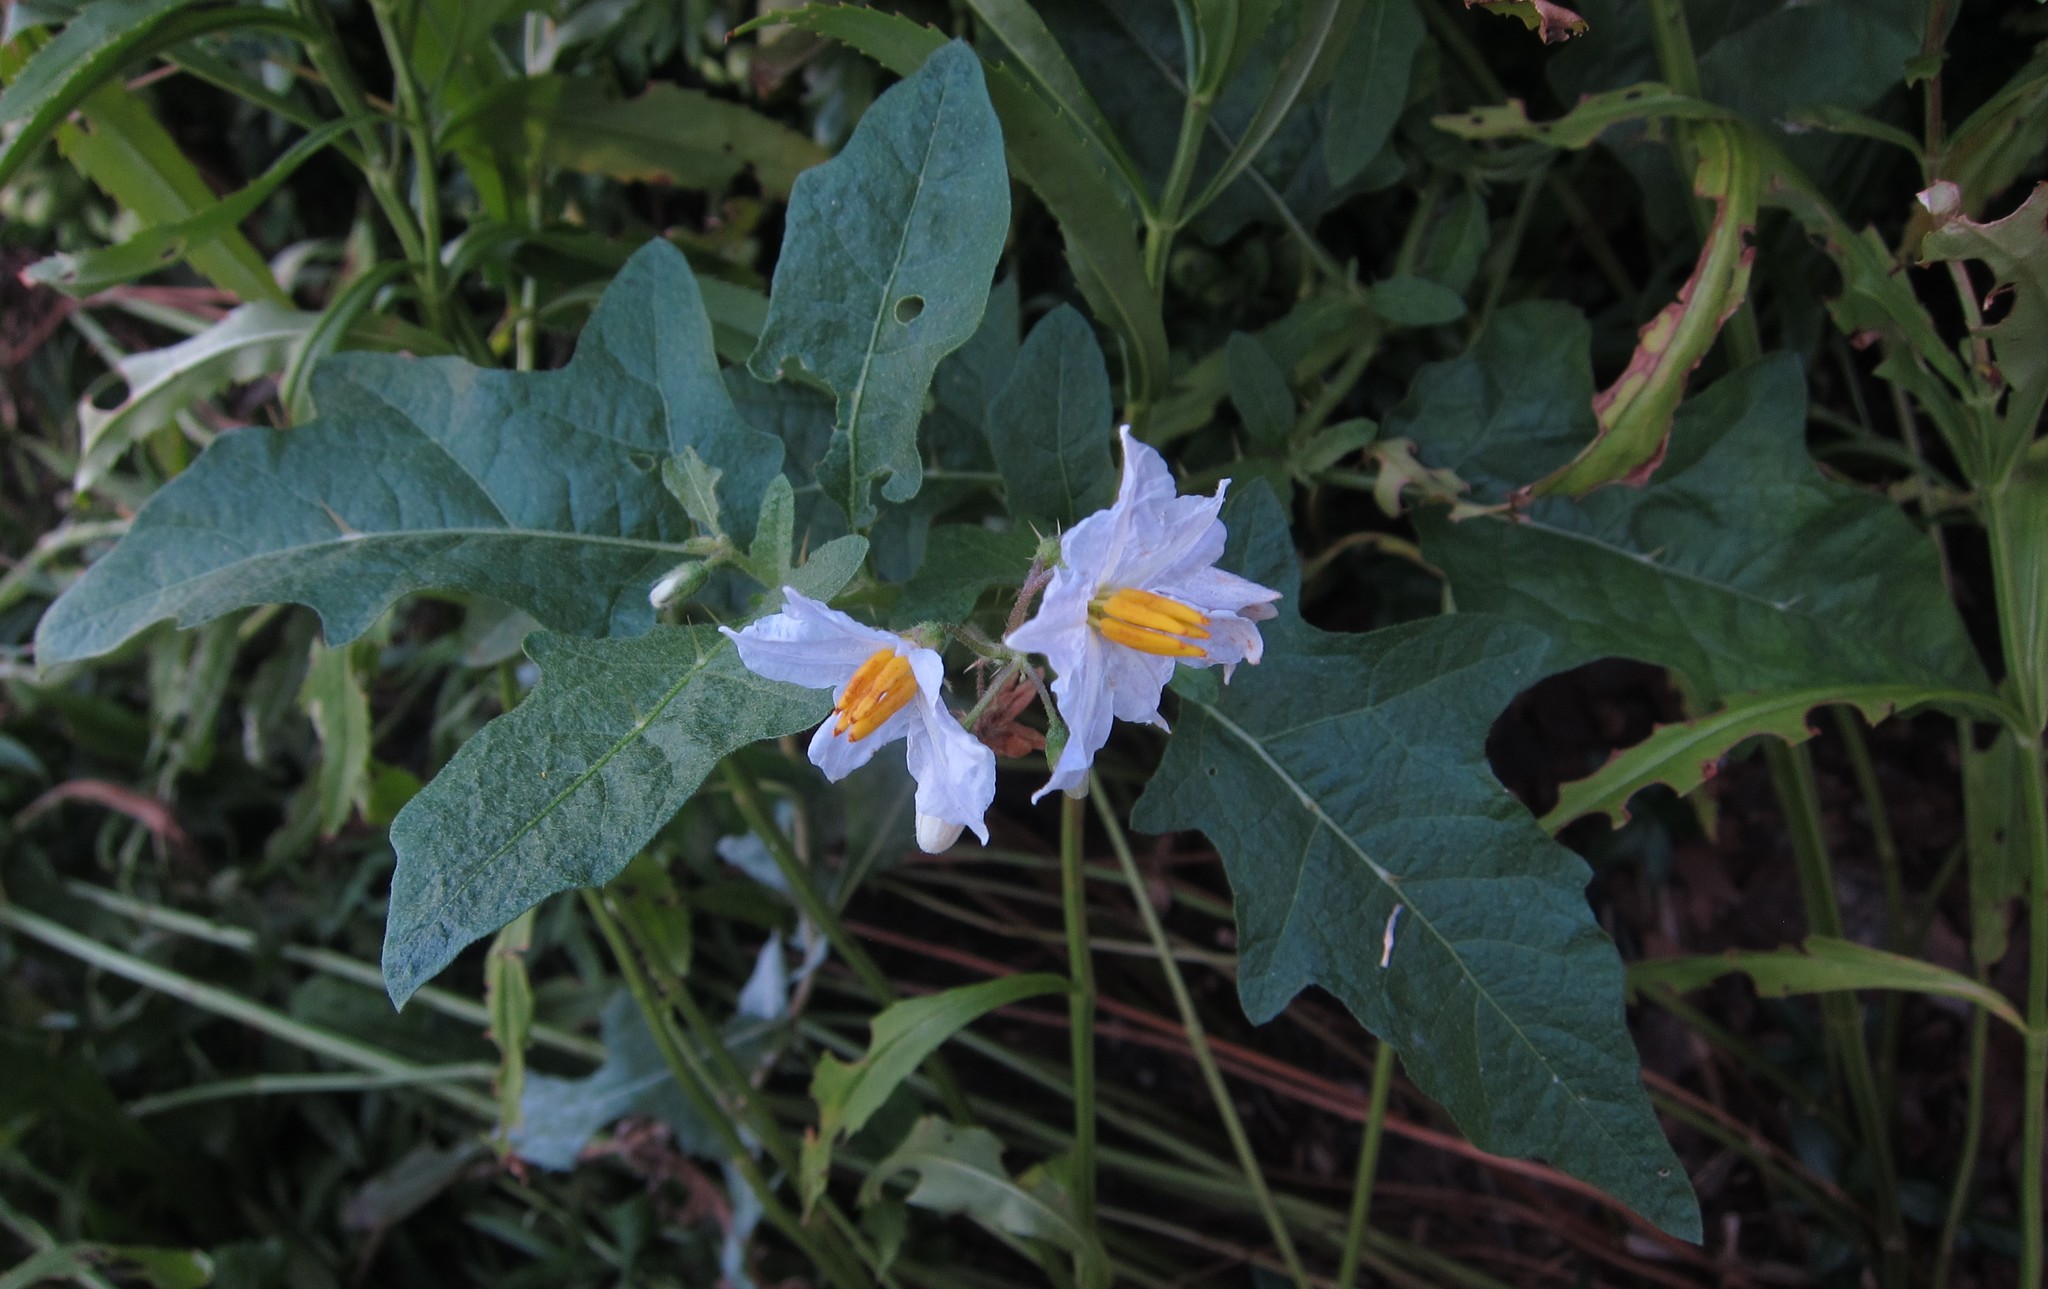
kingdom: Plantae
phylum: Tracheophyta
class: Magnoliopsida
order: Solanales
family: Solanaceae
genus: Solanum
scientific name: Solanum carolinense
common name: Horse-nettle
